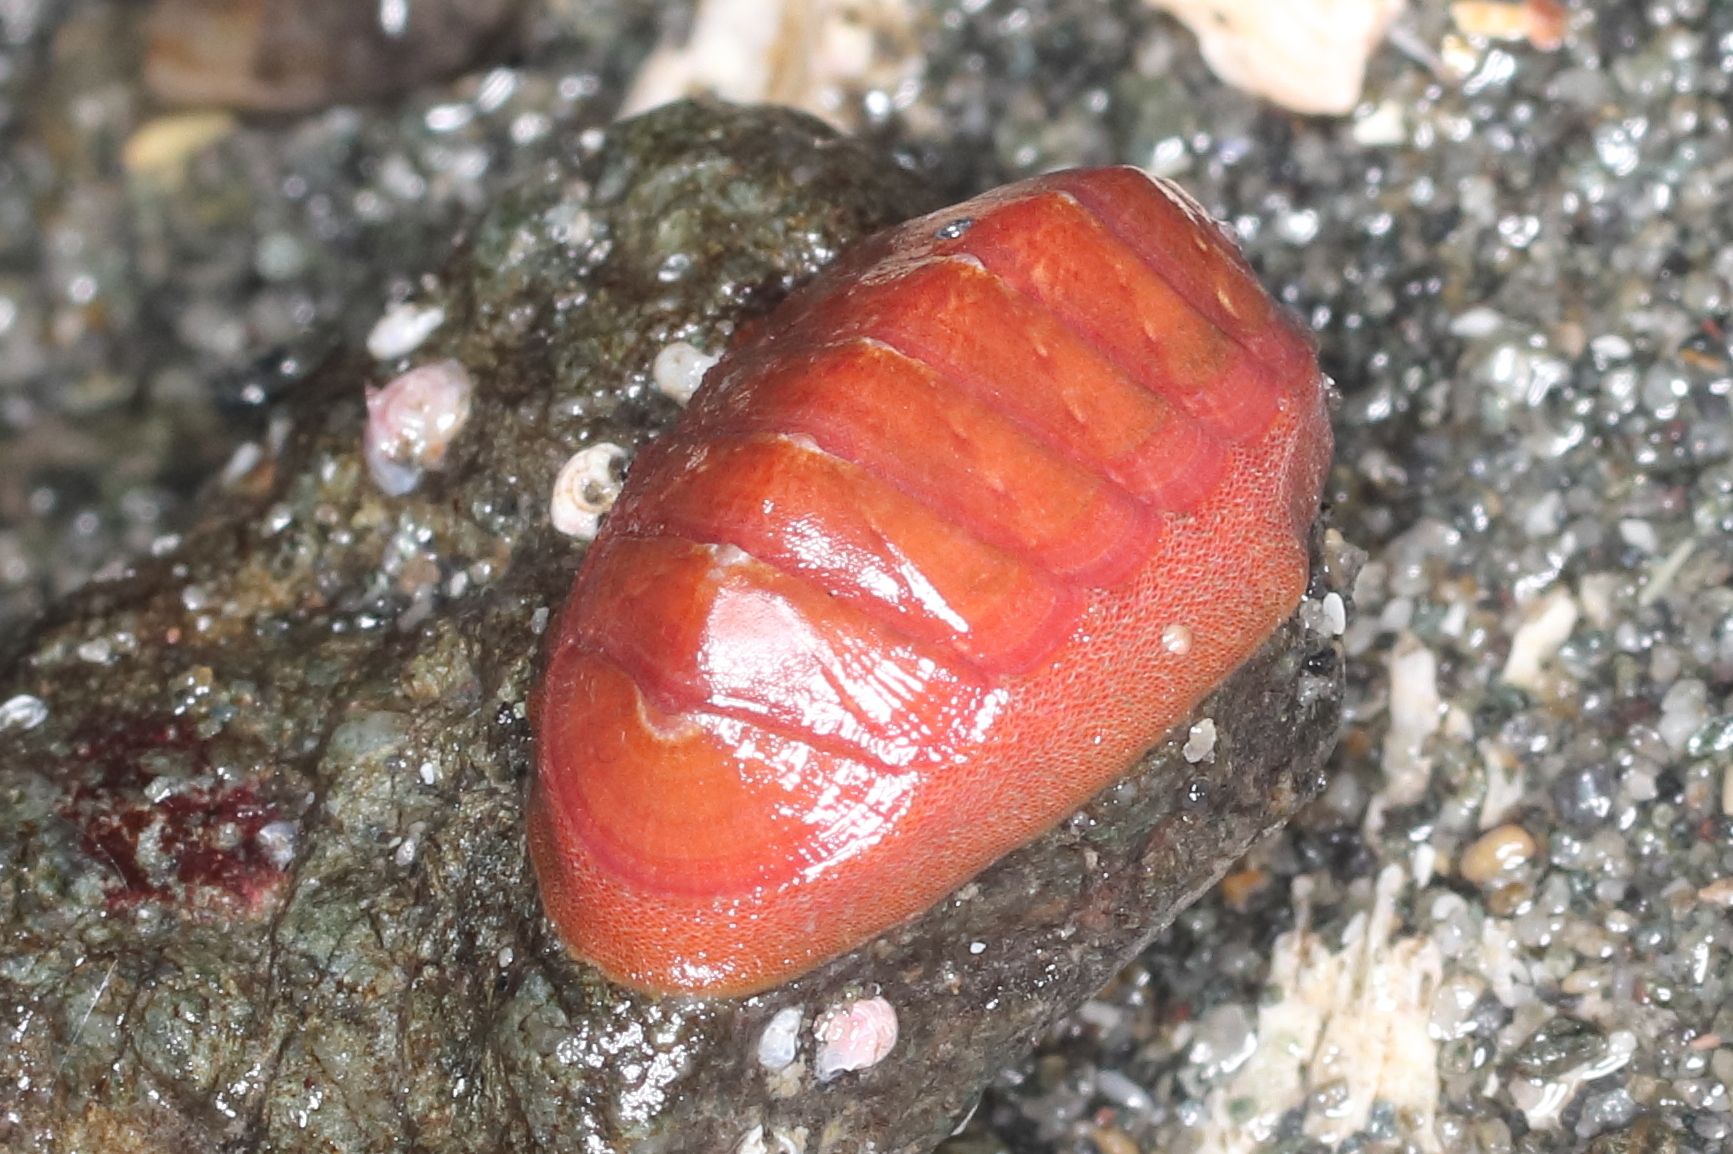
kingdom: Animalia
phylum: Mollusca
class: Polyplacophora
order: Chitonida
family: Ischnochitonidae
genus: Lepidozona
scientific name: Lepidozona interstincta
